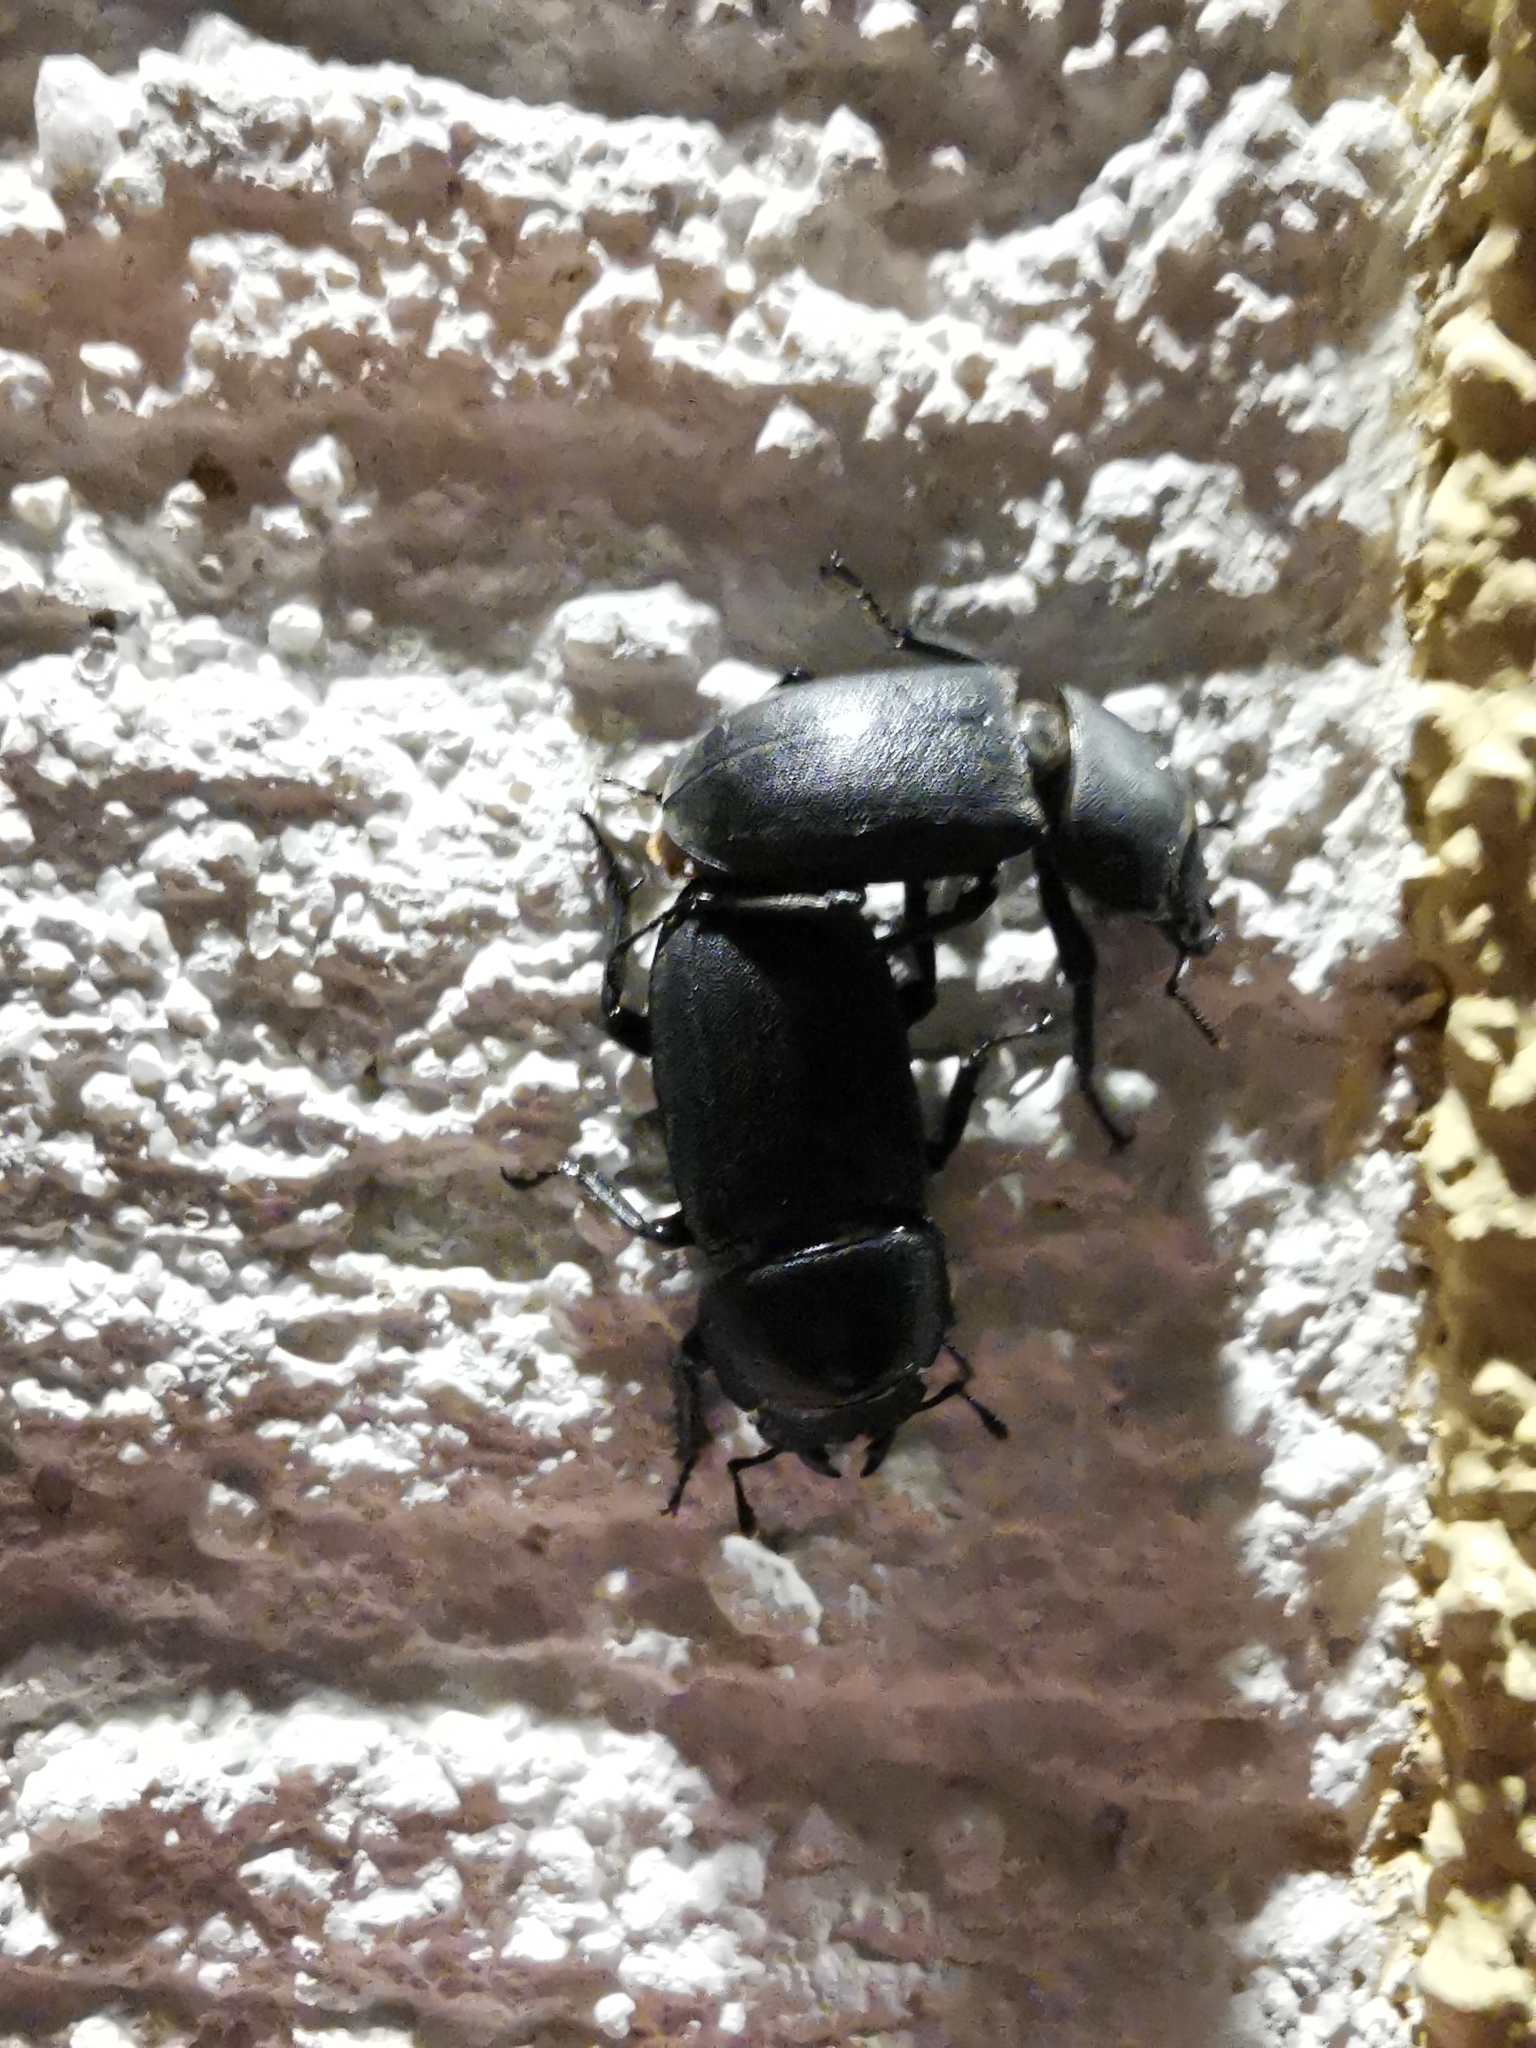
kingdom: Animalia
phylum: Arthropoda
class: Insecta
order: Coleoptera
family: Lucanidae
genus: Dorcus
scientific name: Dorcus parallelipipedus
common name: Lesser stag beetle
